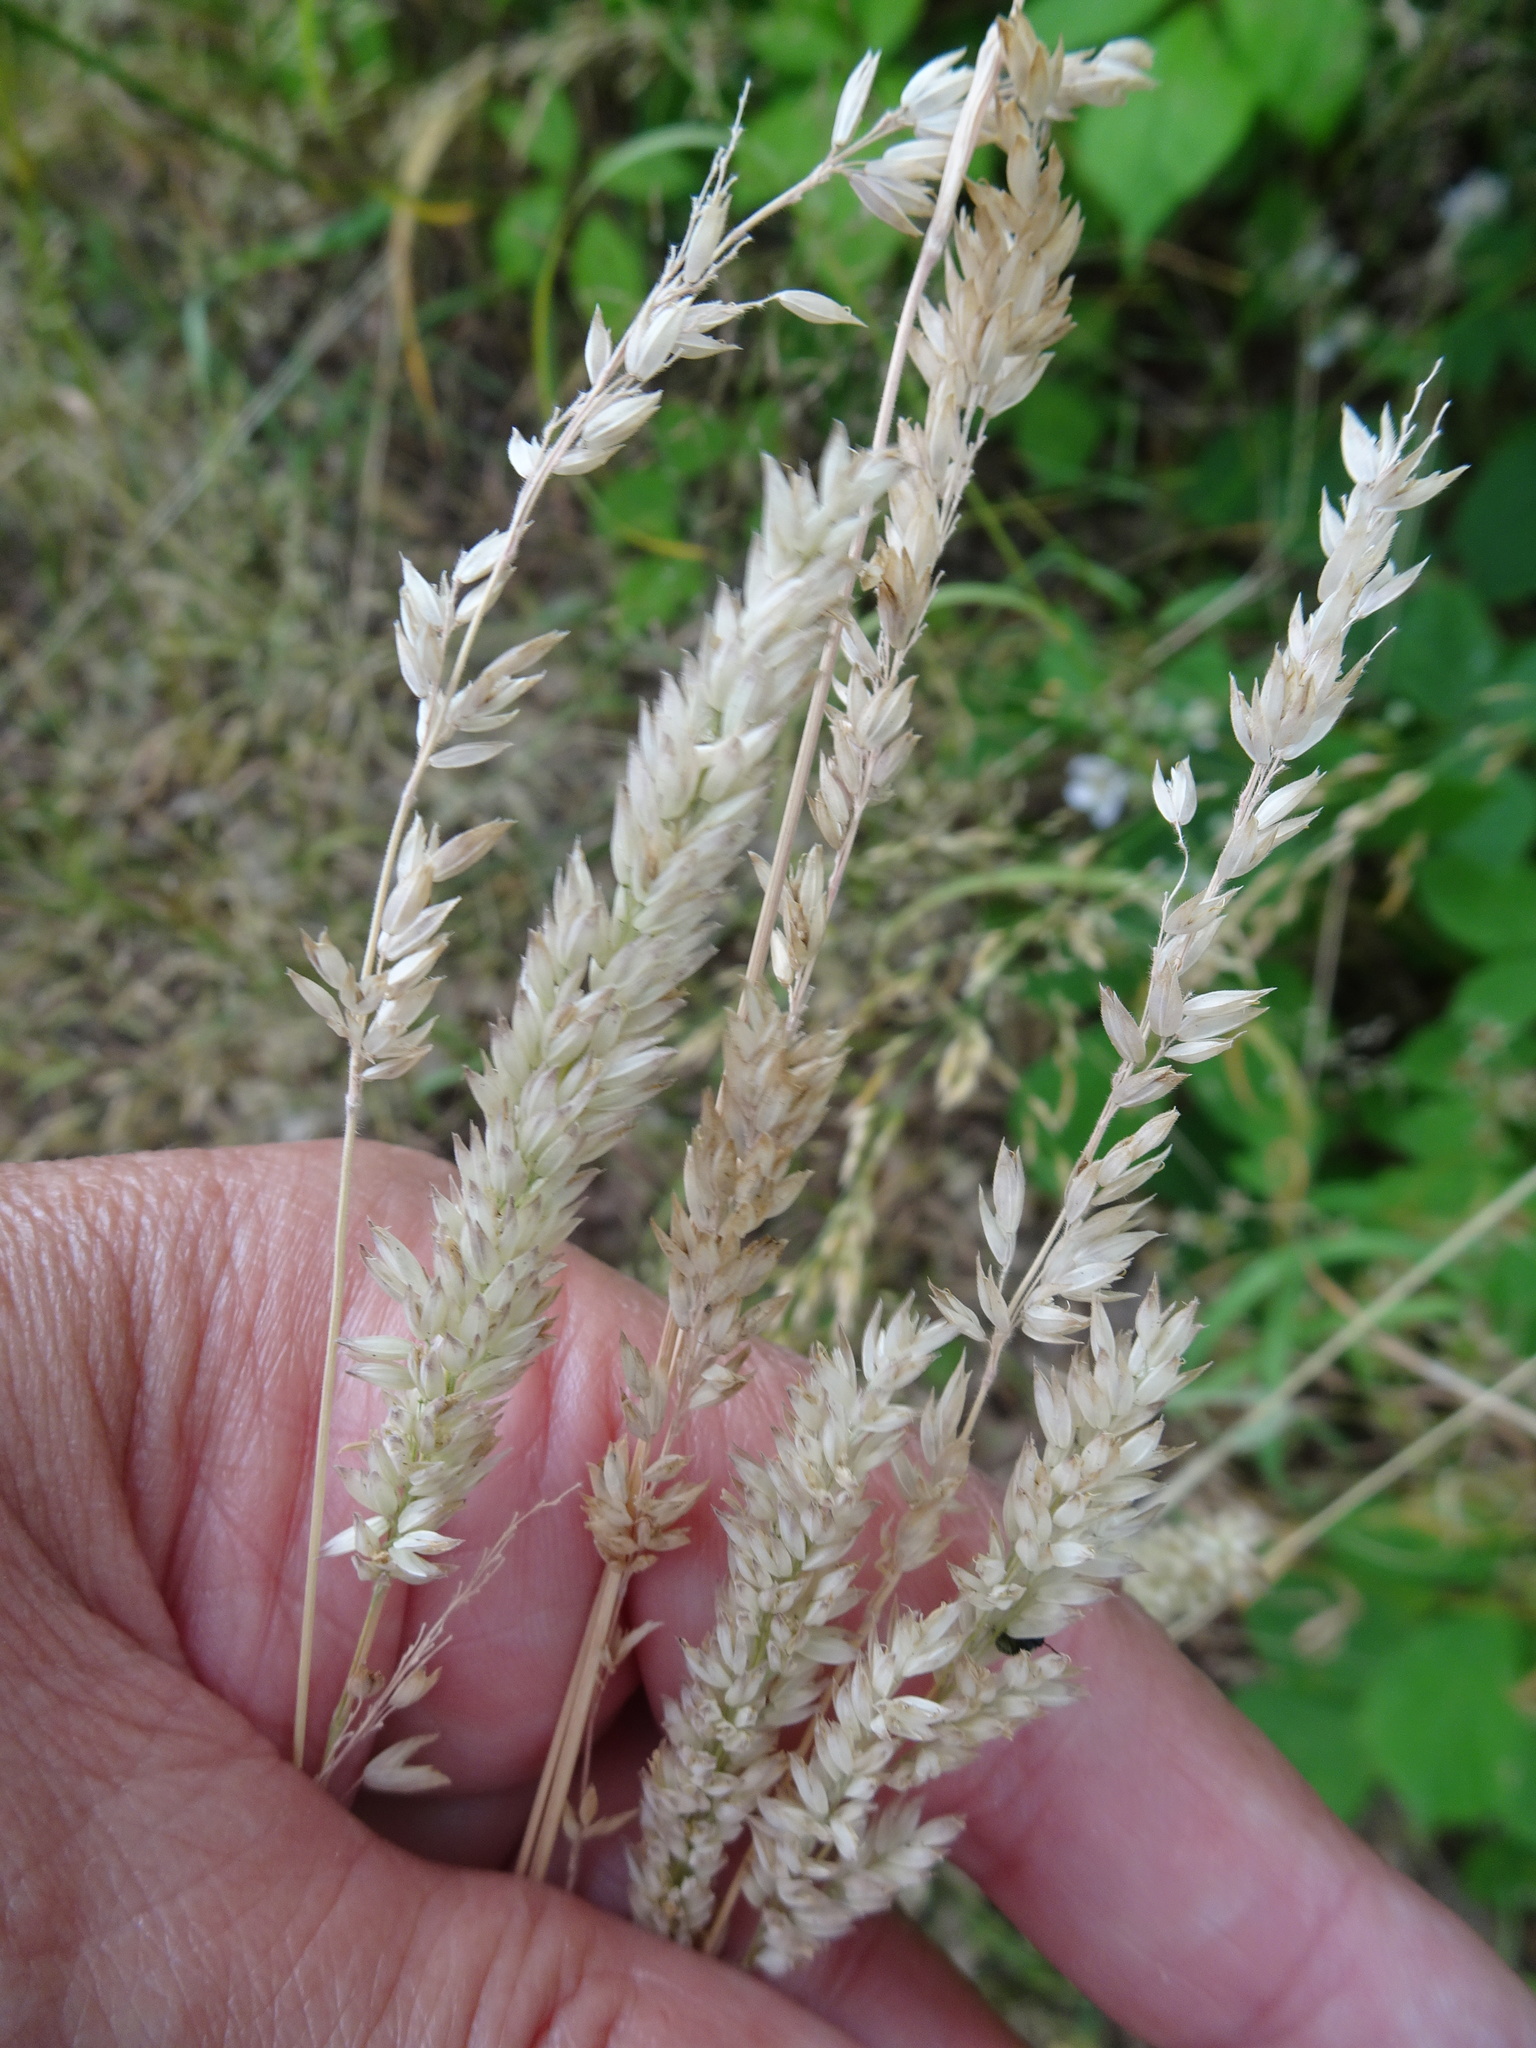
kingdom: Plantae
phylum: Tracheophyta
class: Liliopsida
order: Poales
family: Poaceae
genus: Holcus
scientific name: Holcus lanatus
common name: Yorkshire-fog
